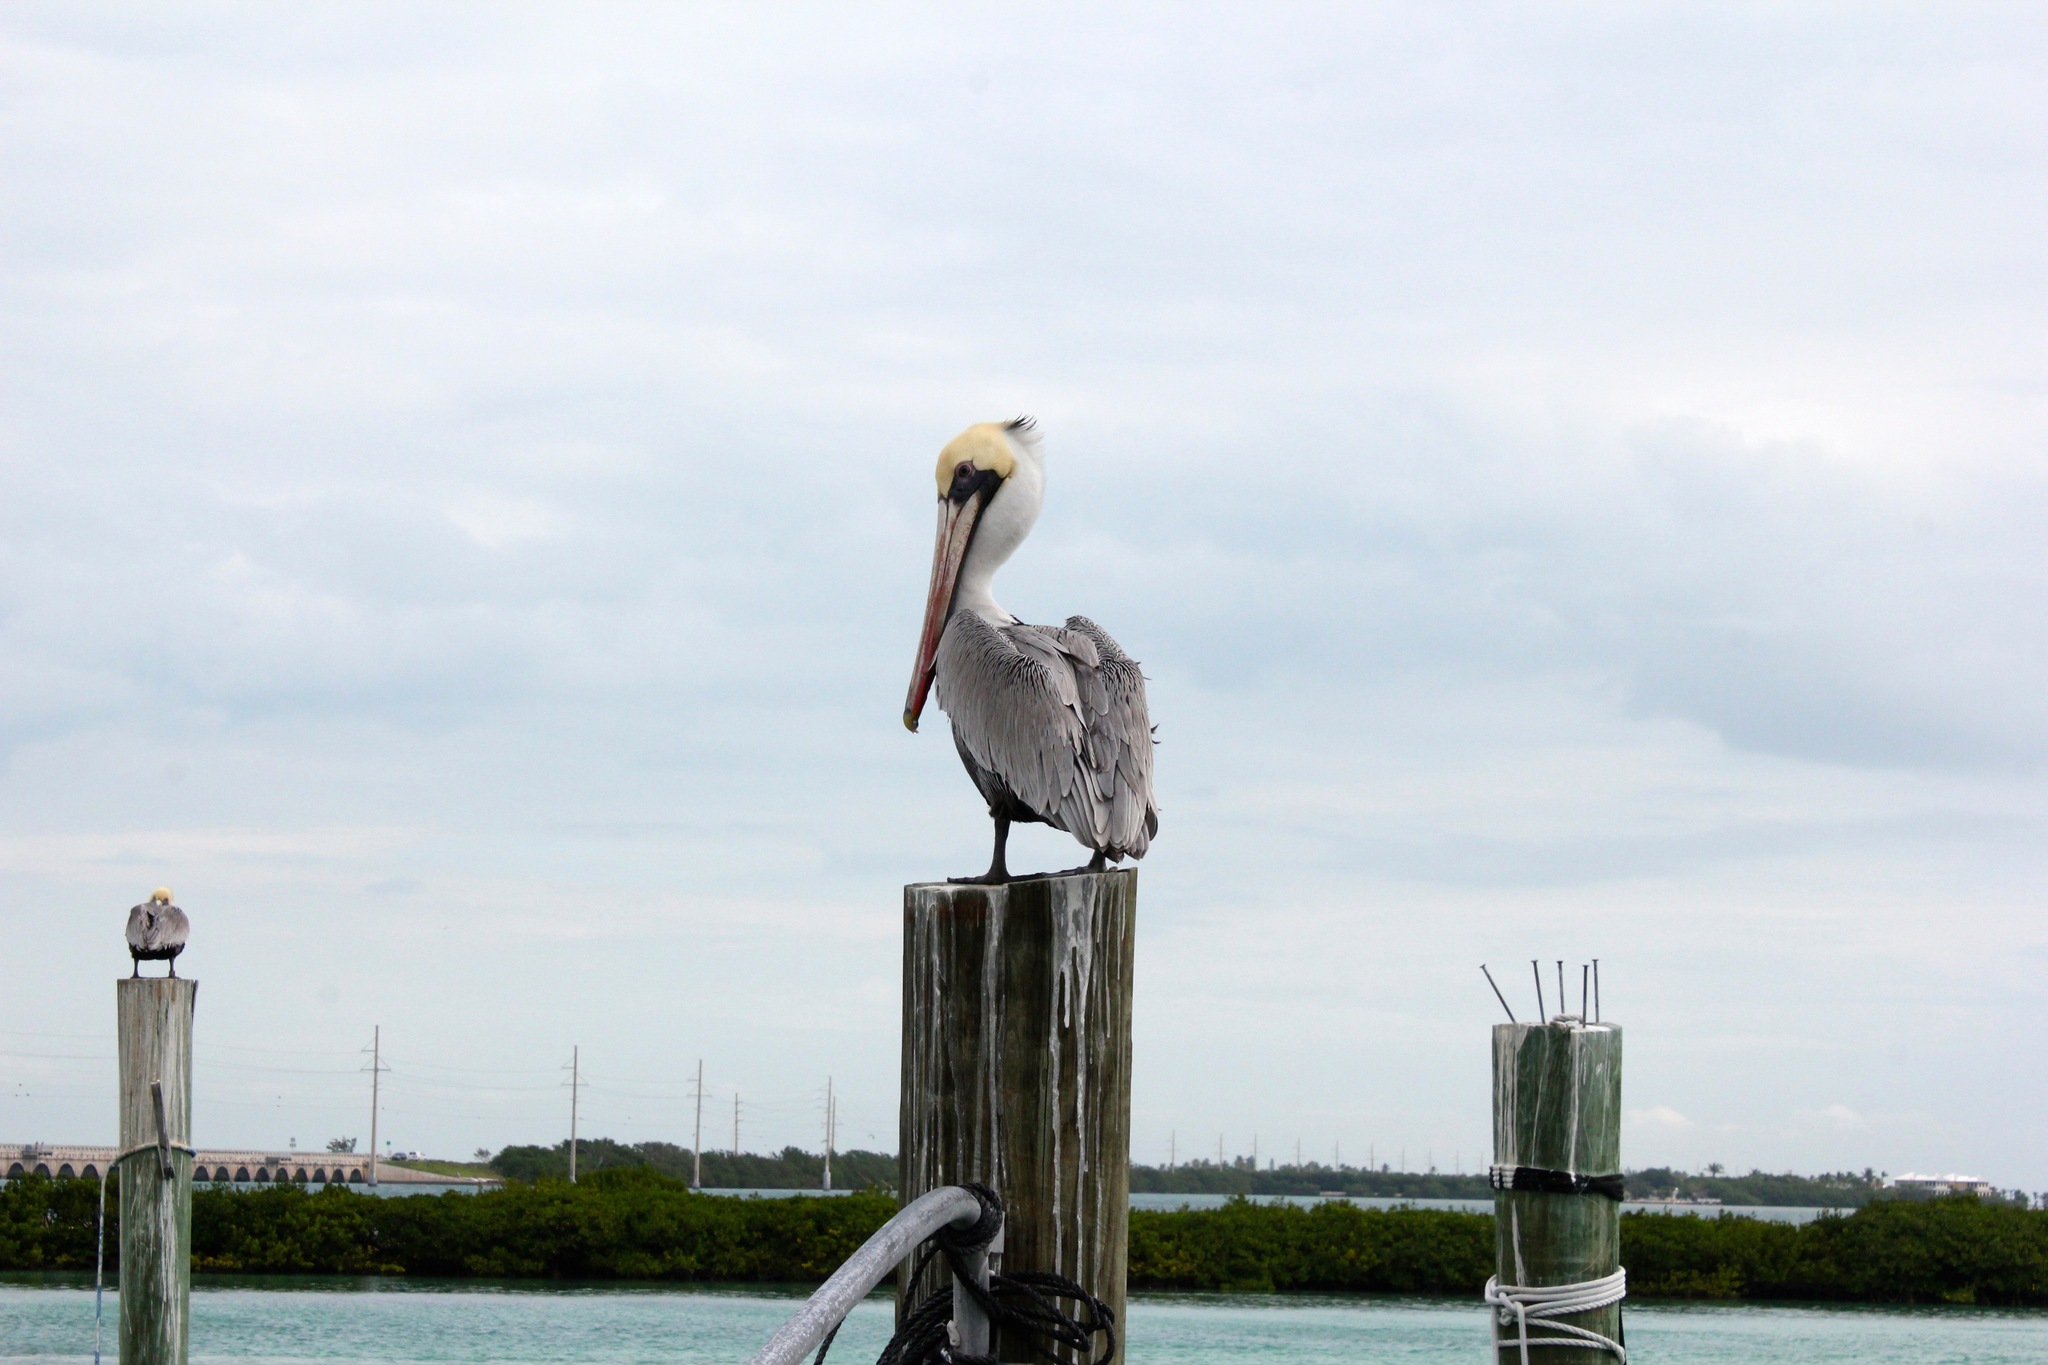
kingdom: Animalia
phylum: Chordata
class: Aves
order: Pelecaniformes
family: Pelecanidae
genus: Pelecanus
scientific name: Pelecanus occidentalis
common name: Brown pelican
